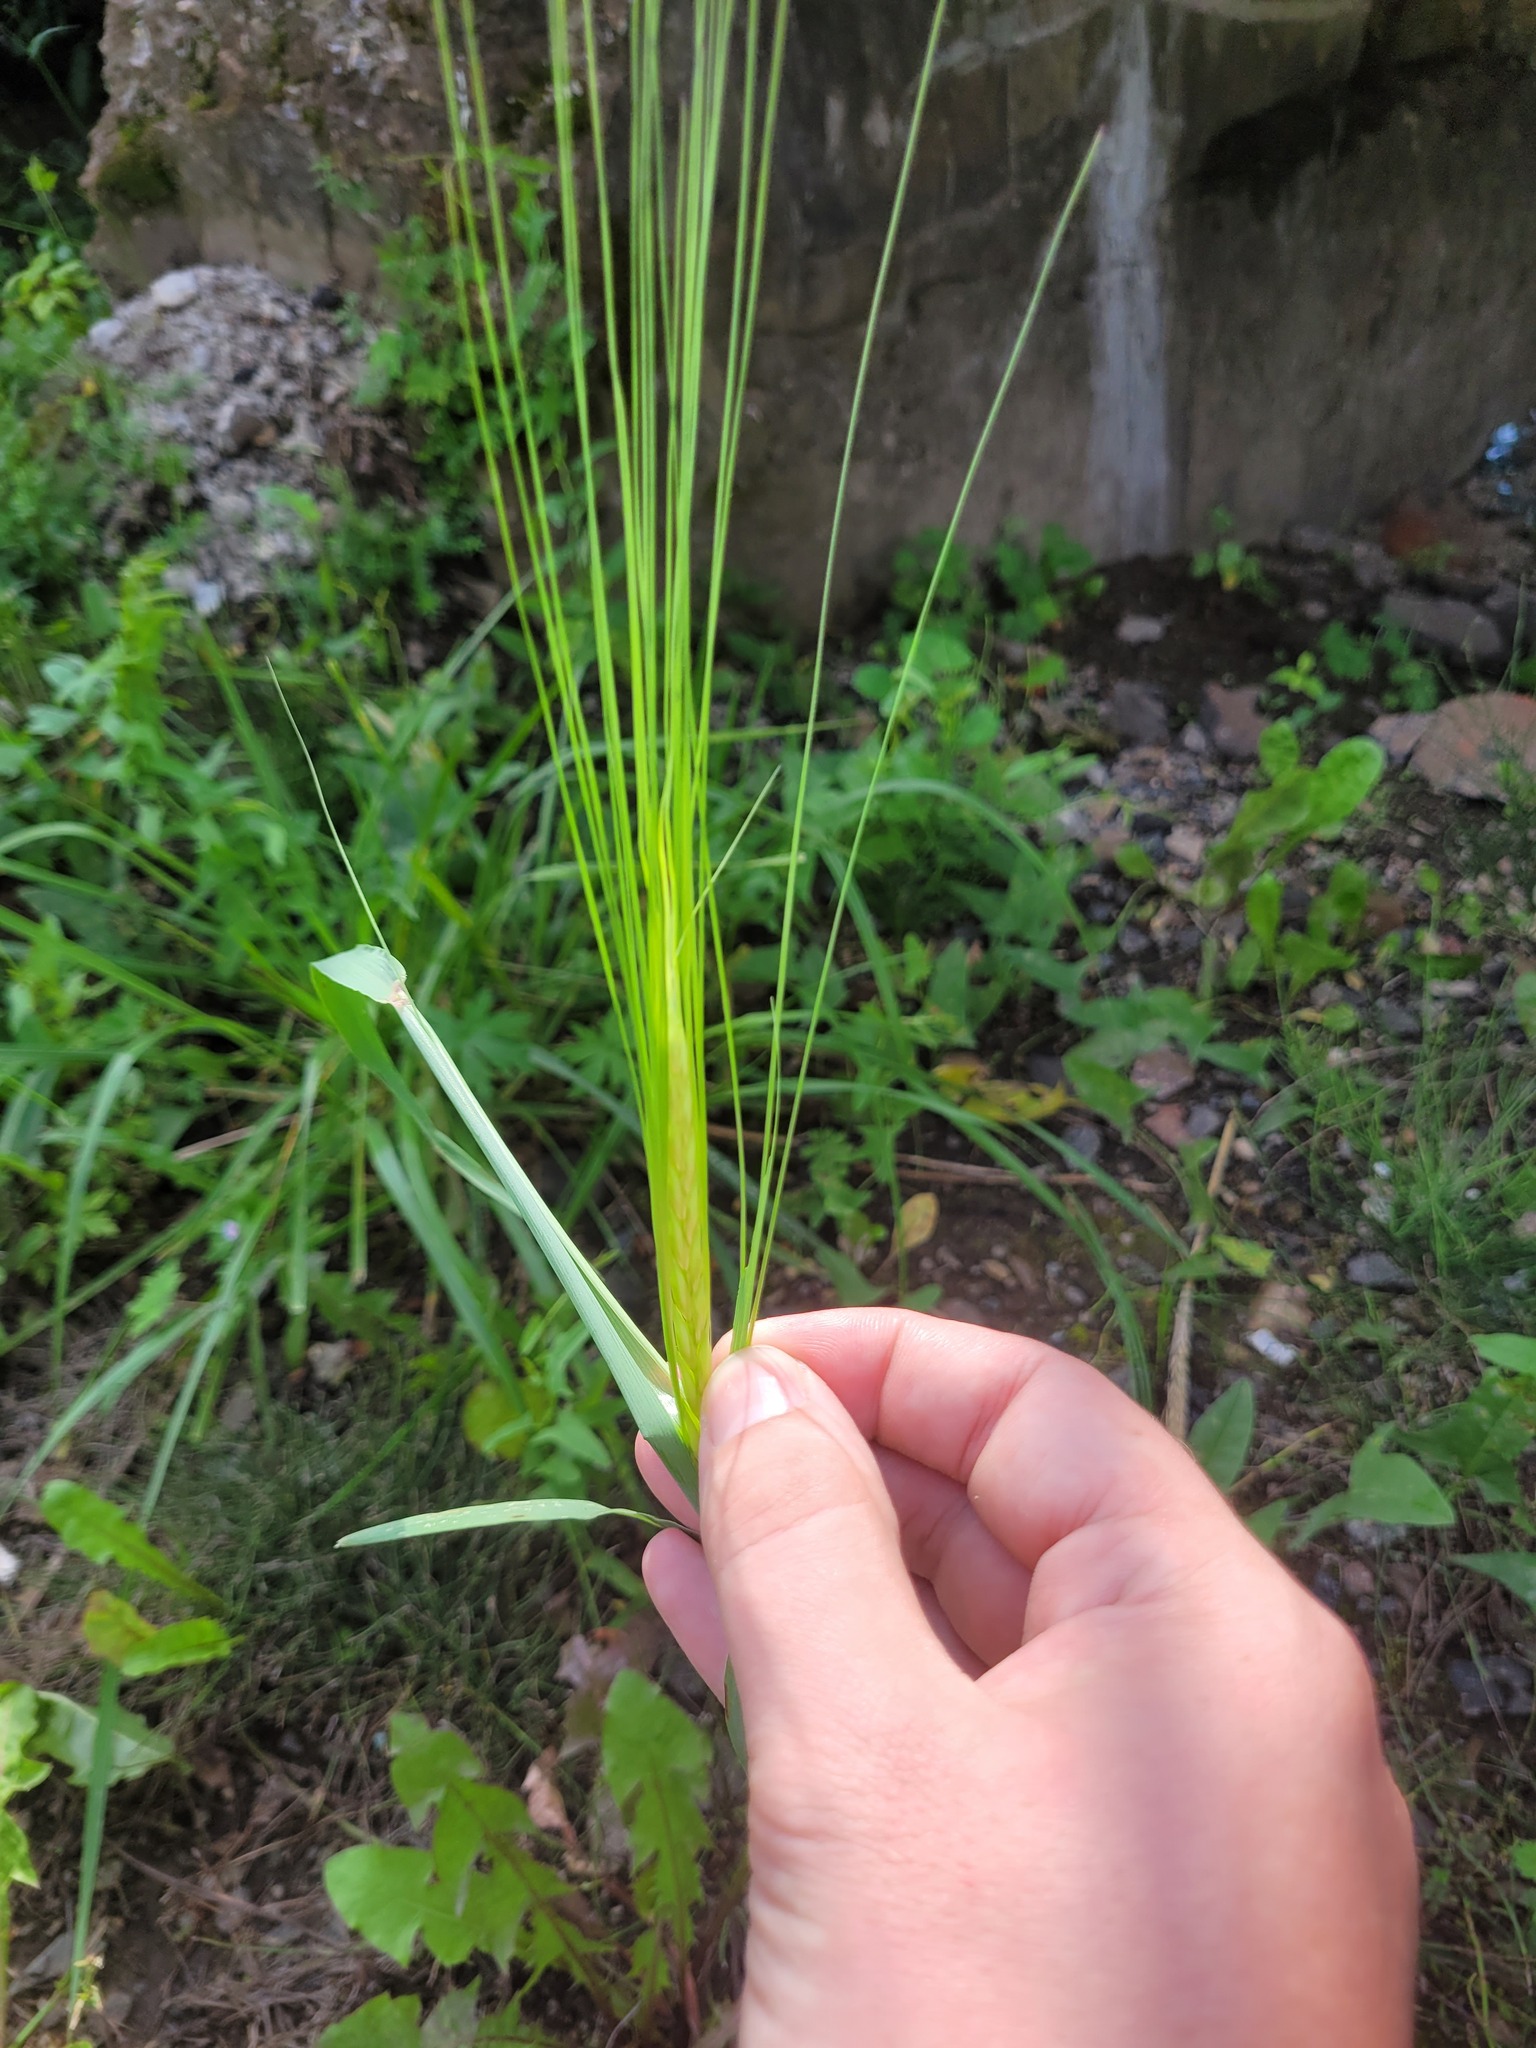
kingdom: Plantae
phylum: Tracheophyta
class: Liliopsida
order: Poales
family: Poaceae
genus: Hordeum
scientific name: Hordeum vulgare
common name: Common barley
